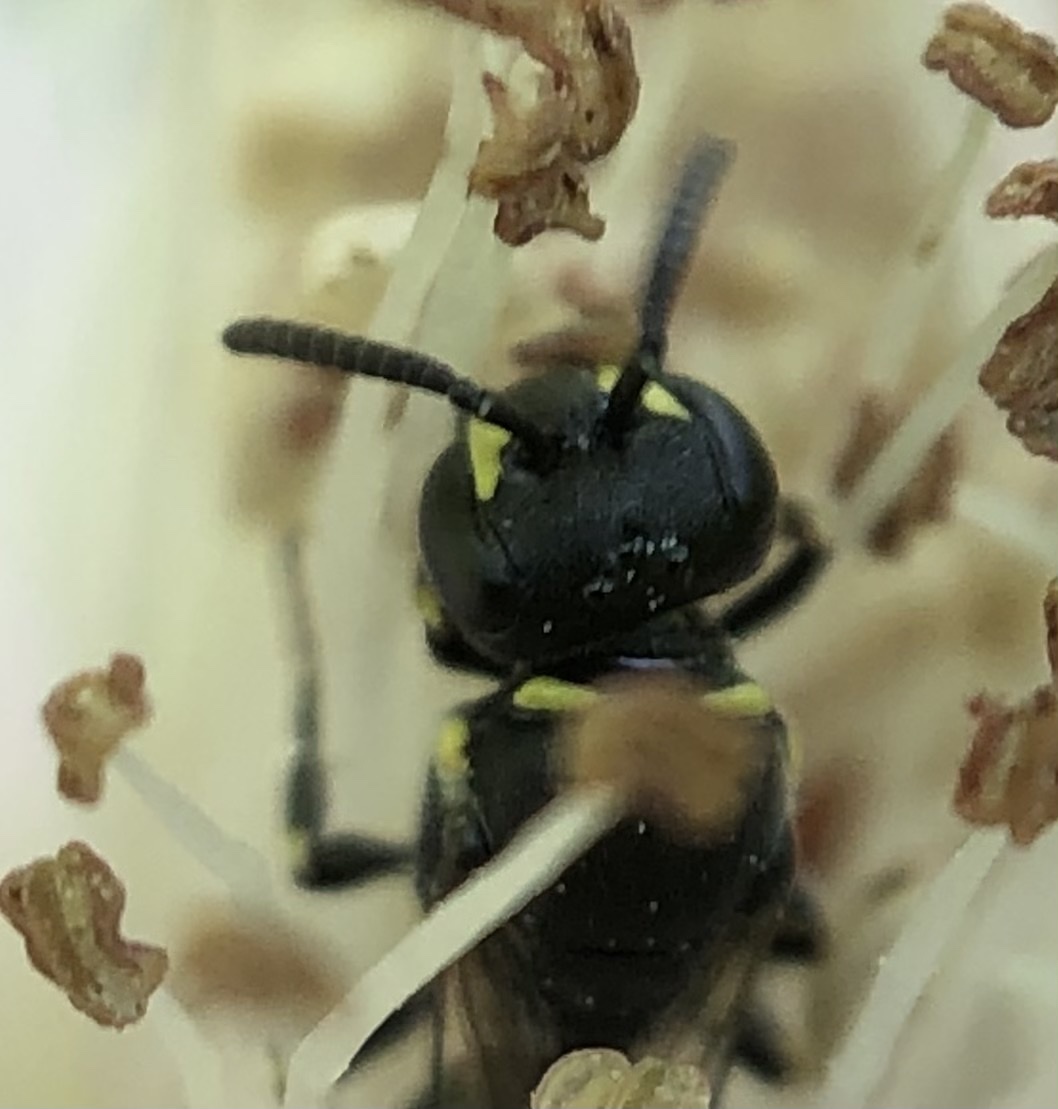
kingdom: Animalia
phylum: Arthropoda
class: Insecta
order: Hymenoptera
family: Colletidae
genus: Hylaeus
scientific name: Hylaeus modestus
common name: Yellow-faced bee
